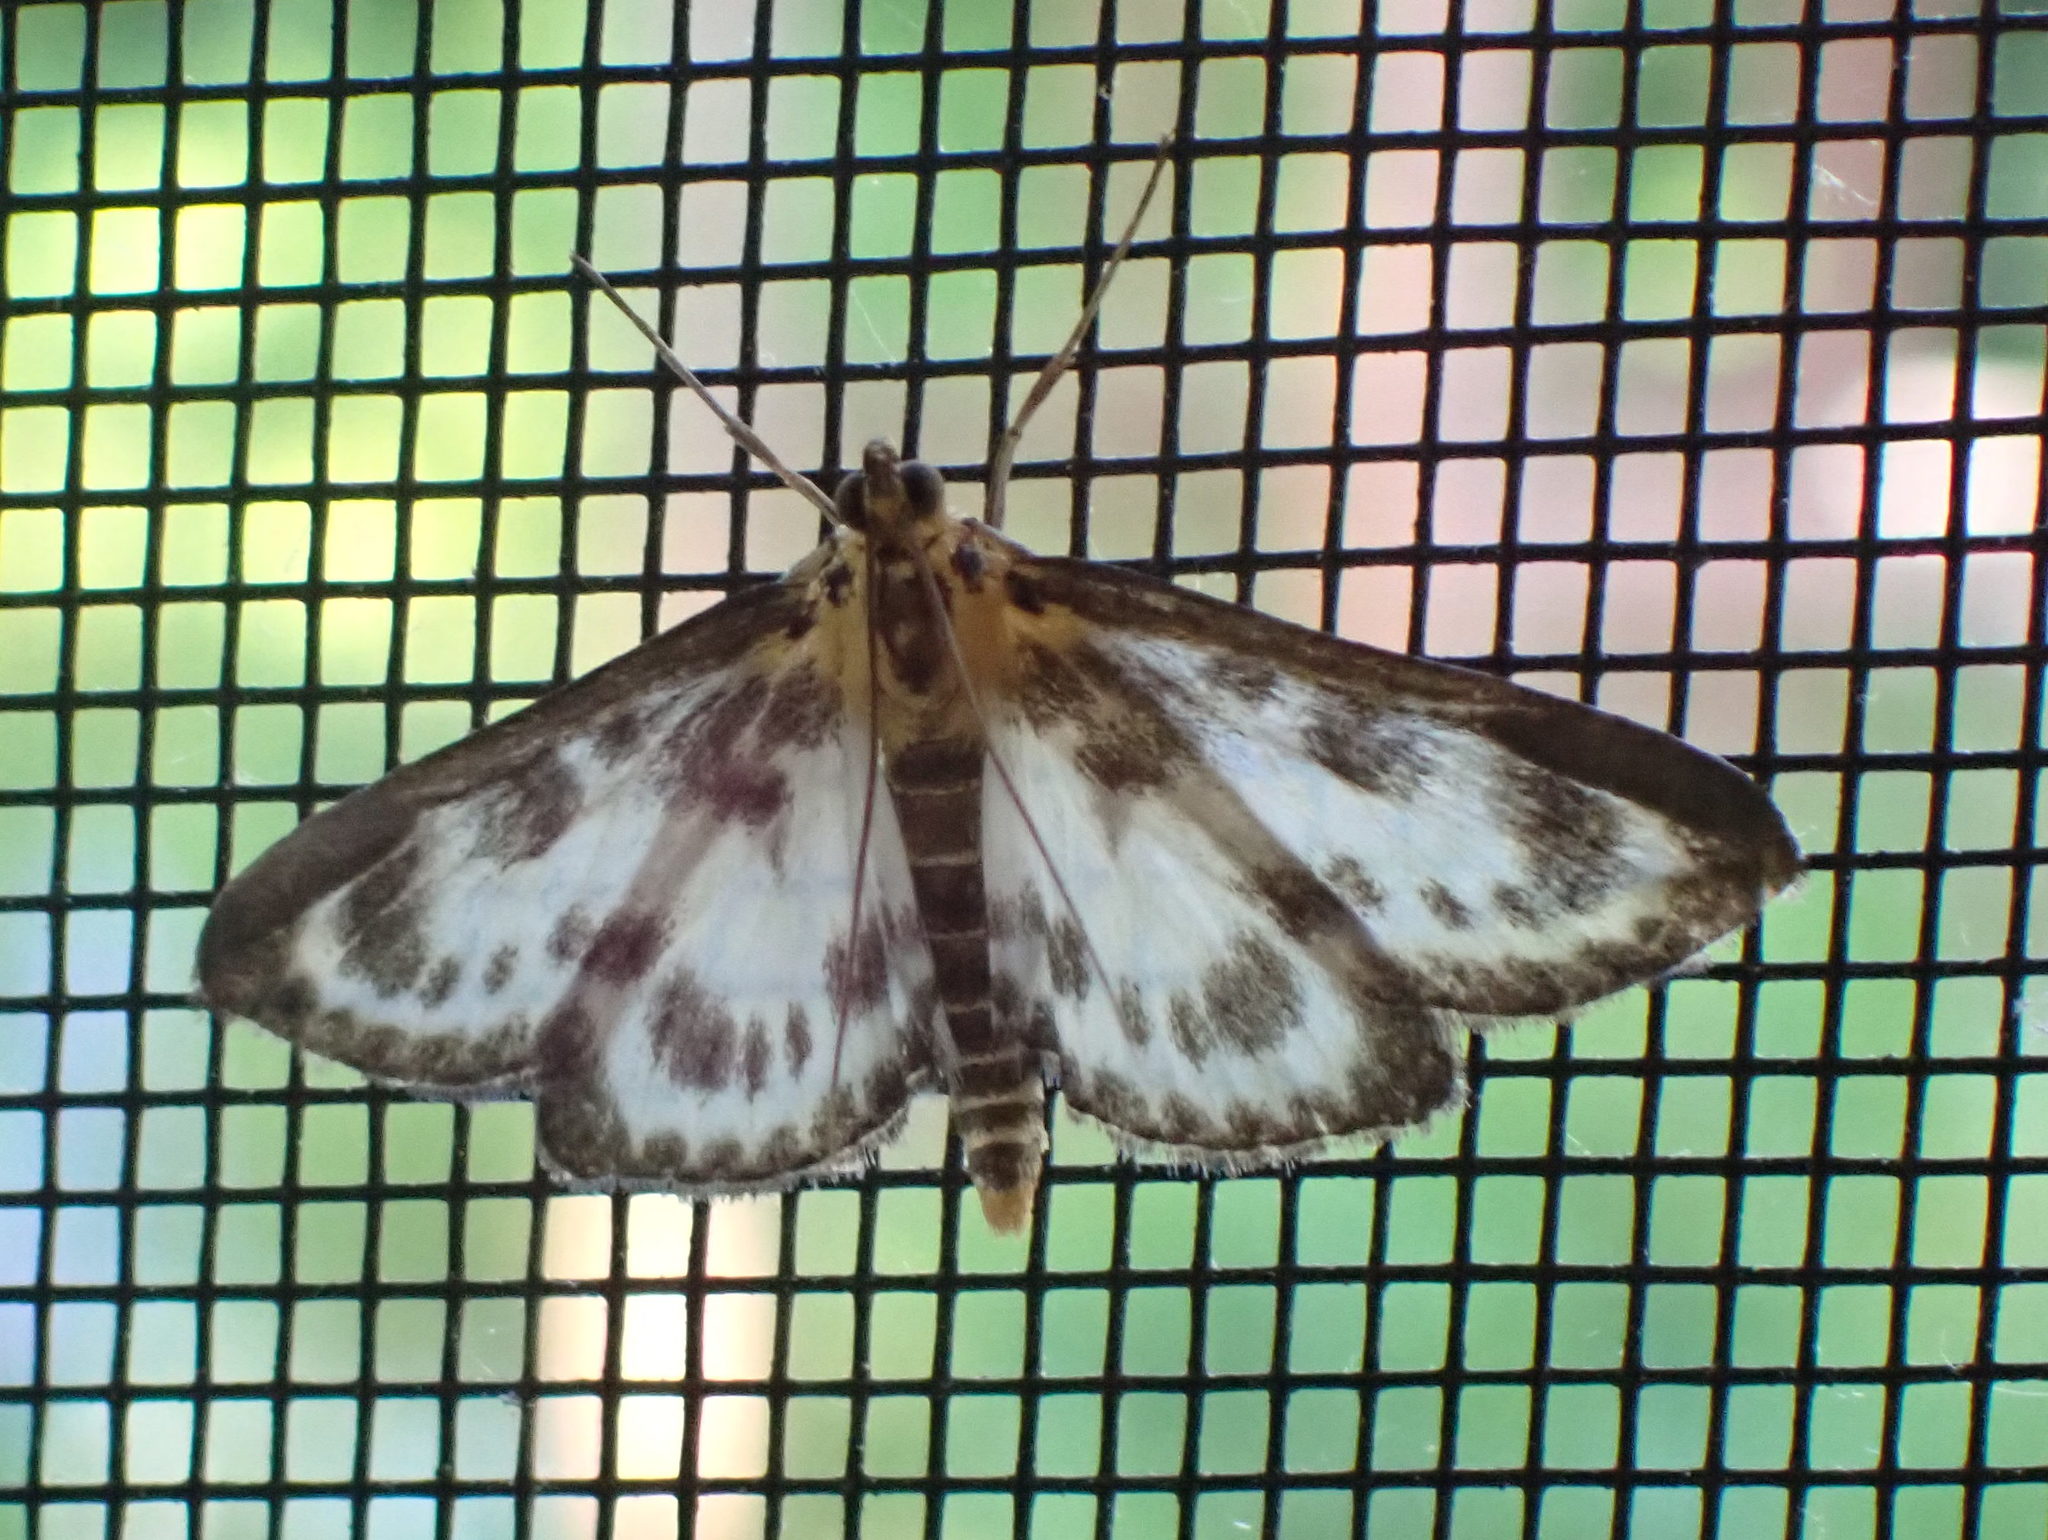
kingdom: Animalia
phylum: Arthropoda
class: Insecta
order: Lepidoptera
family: Crambidae
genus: Anania
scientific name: Anania hortulata
